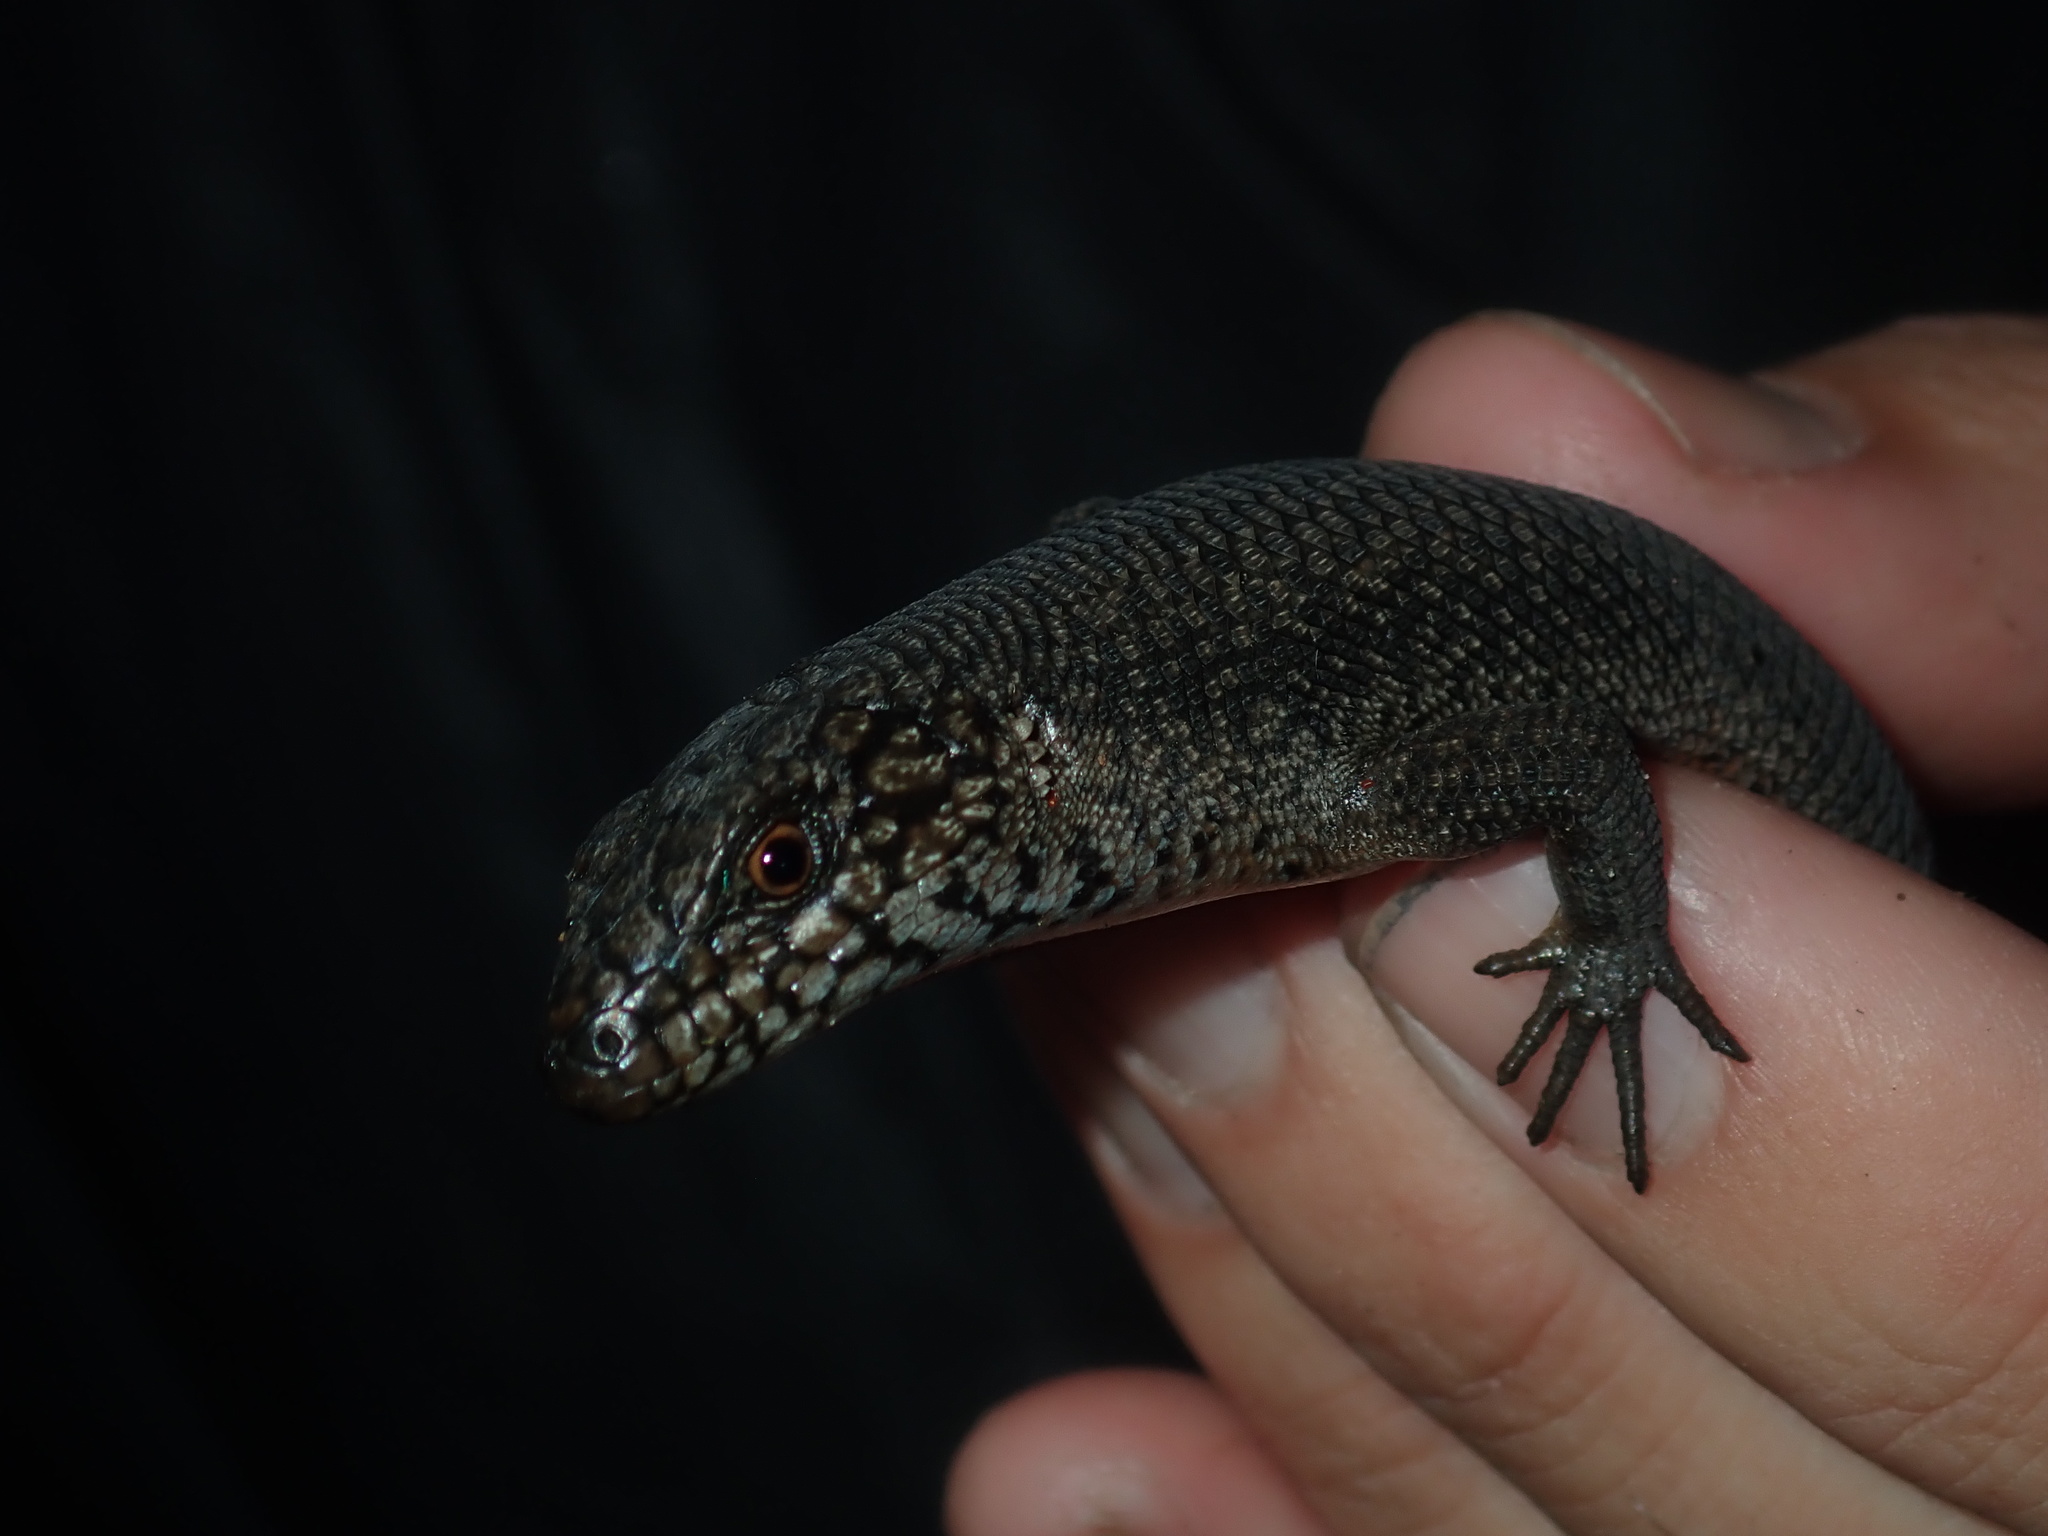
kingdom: Animalia
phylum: Chordata
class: Squamata
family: Scincidae
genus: Egernia
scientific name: Egernia saxatilis
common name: Black crevice-skink
